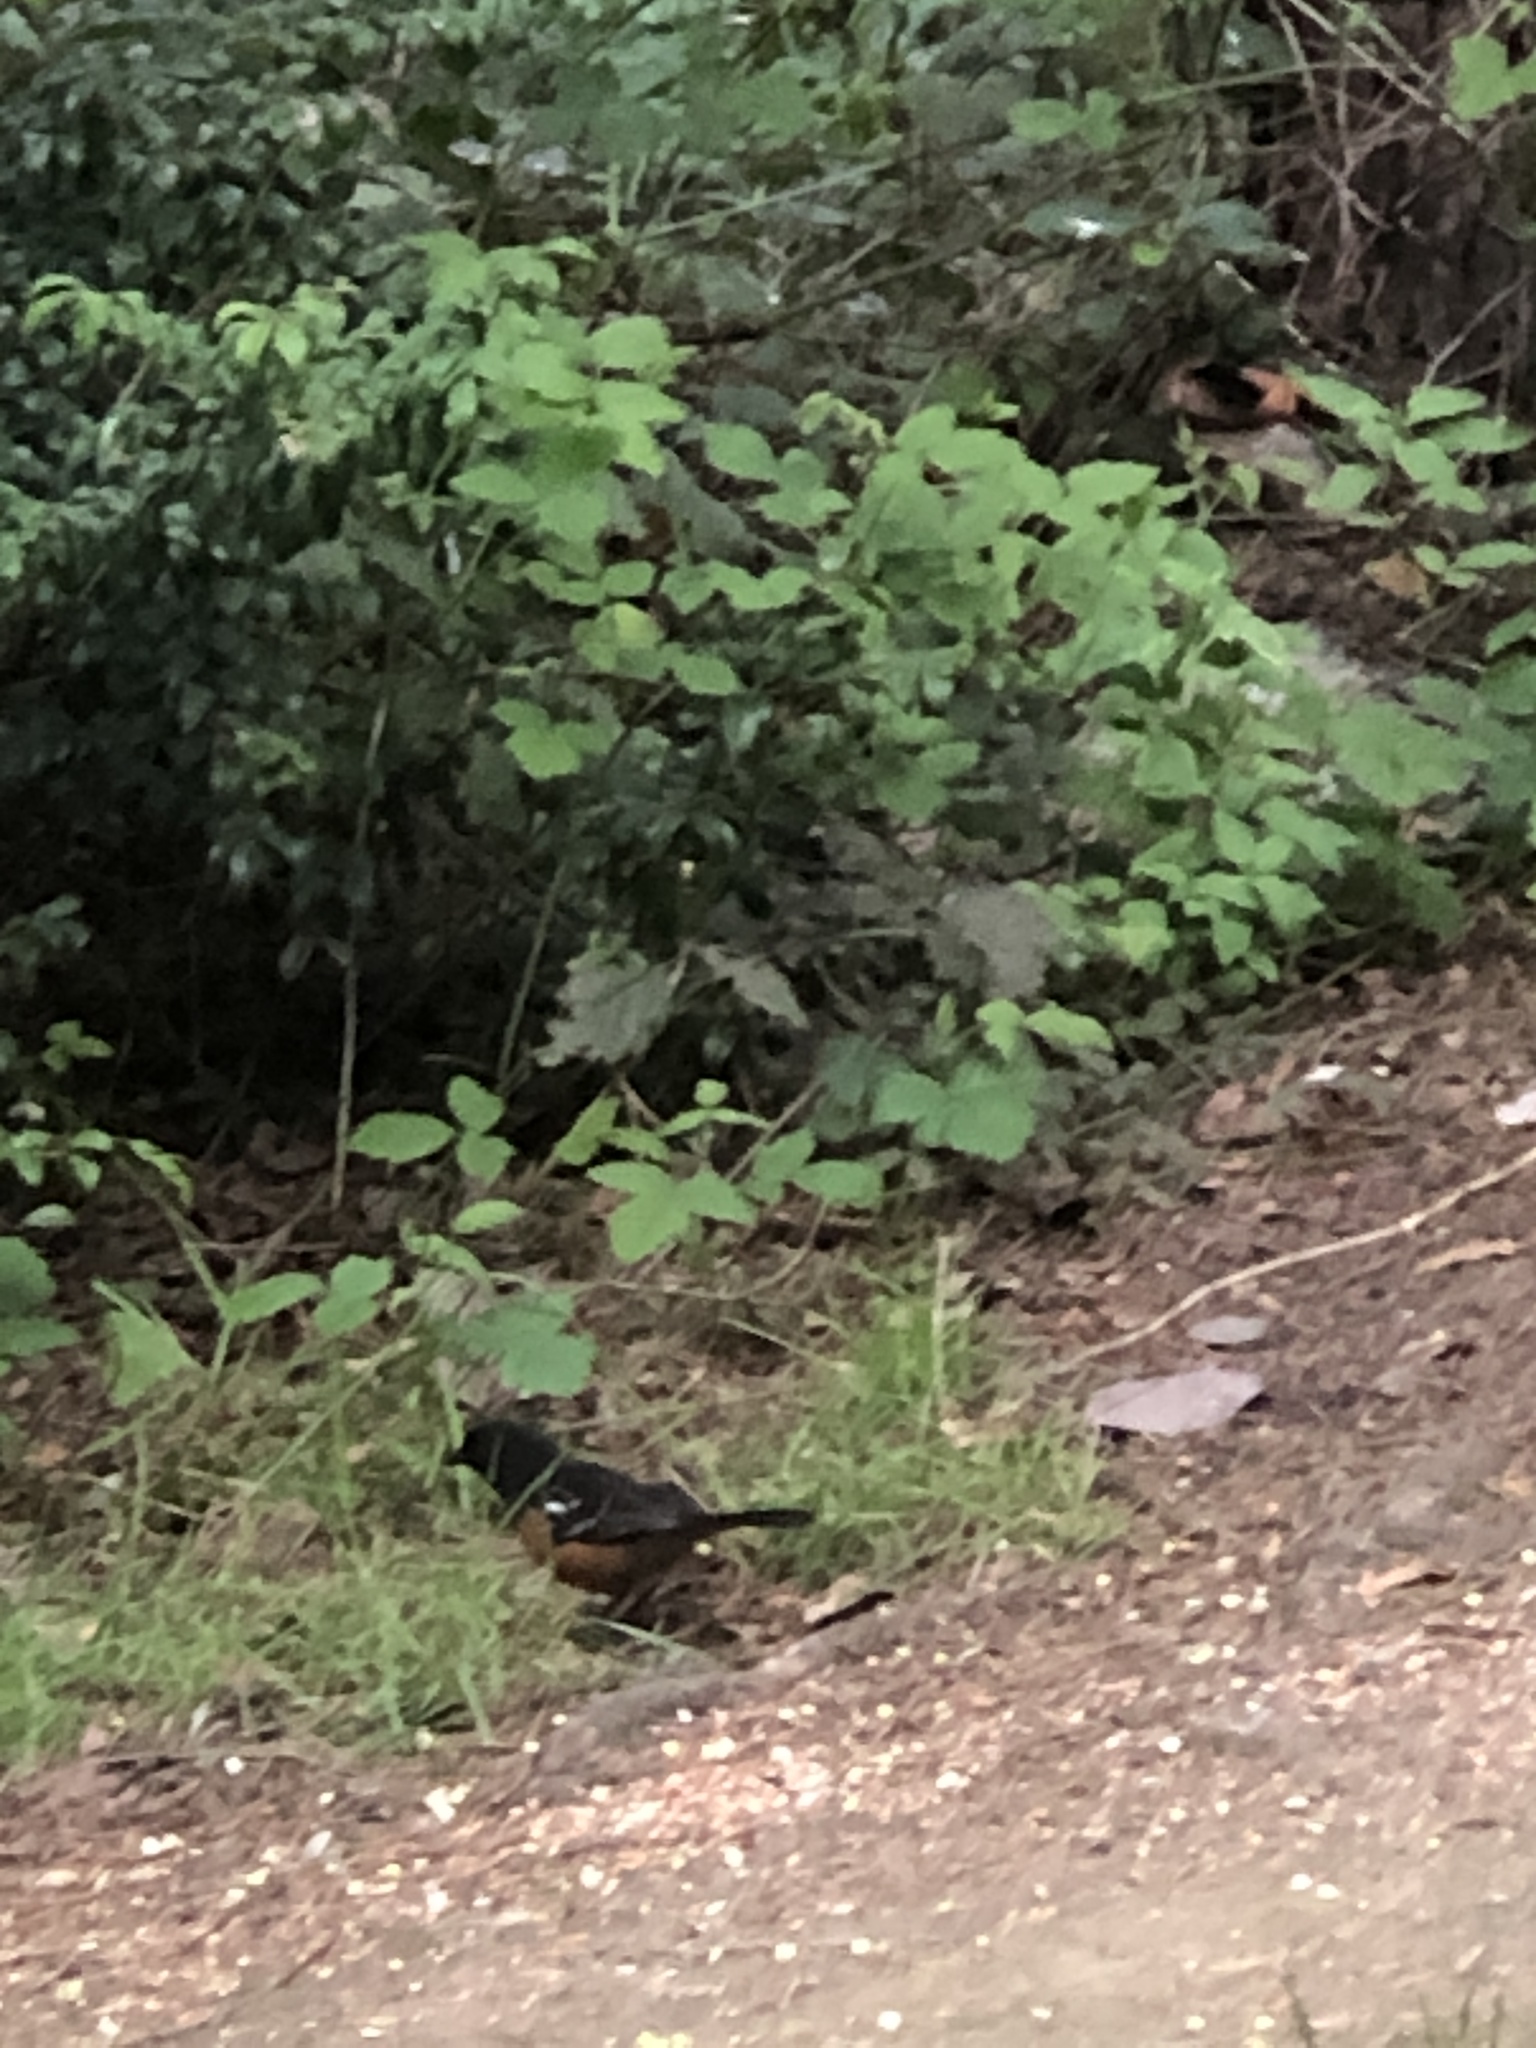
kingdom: Animalia
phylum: Chordata
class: Aves
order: Passeriformes
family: Passerellidae
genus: Pipilo
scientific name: Pipilo maculatus
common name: Spotted towhee
